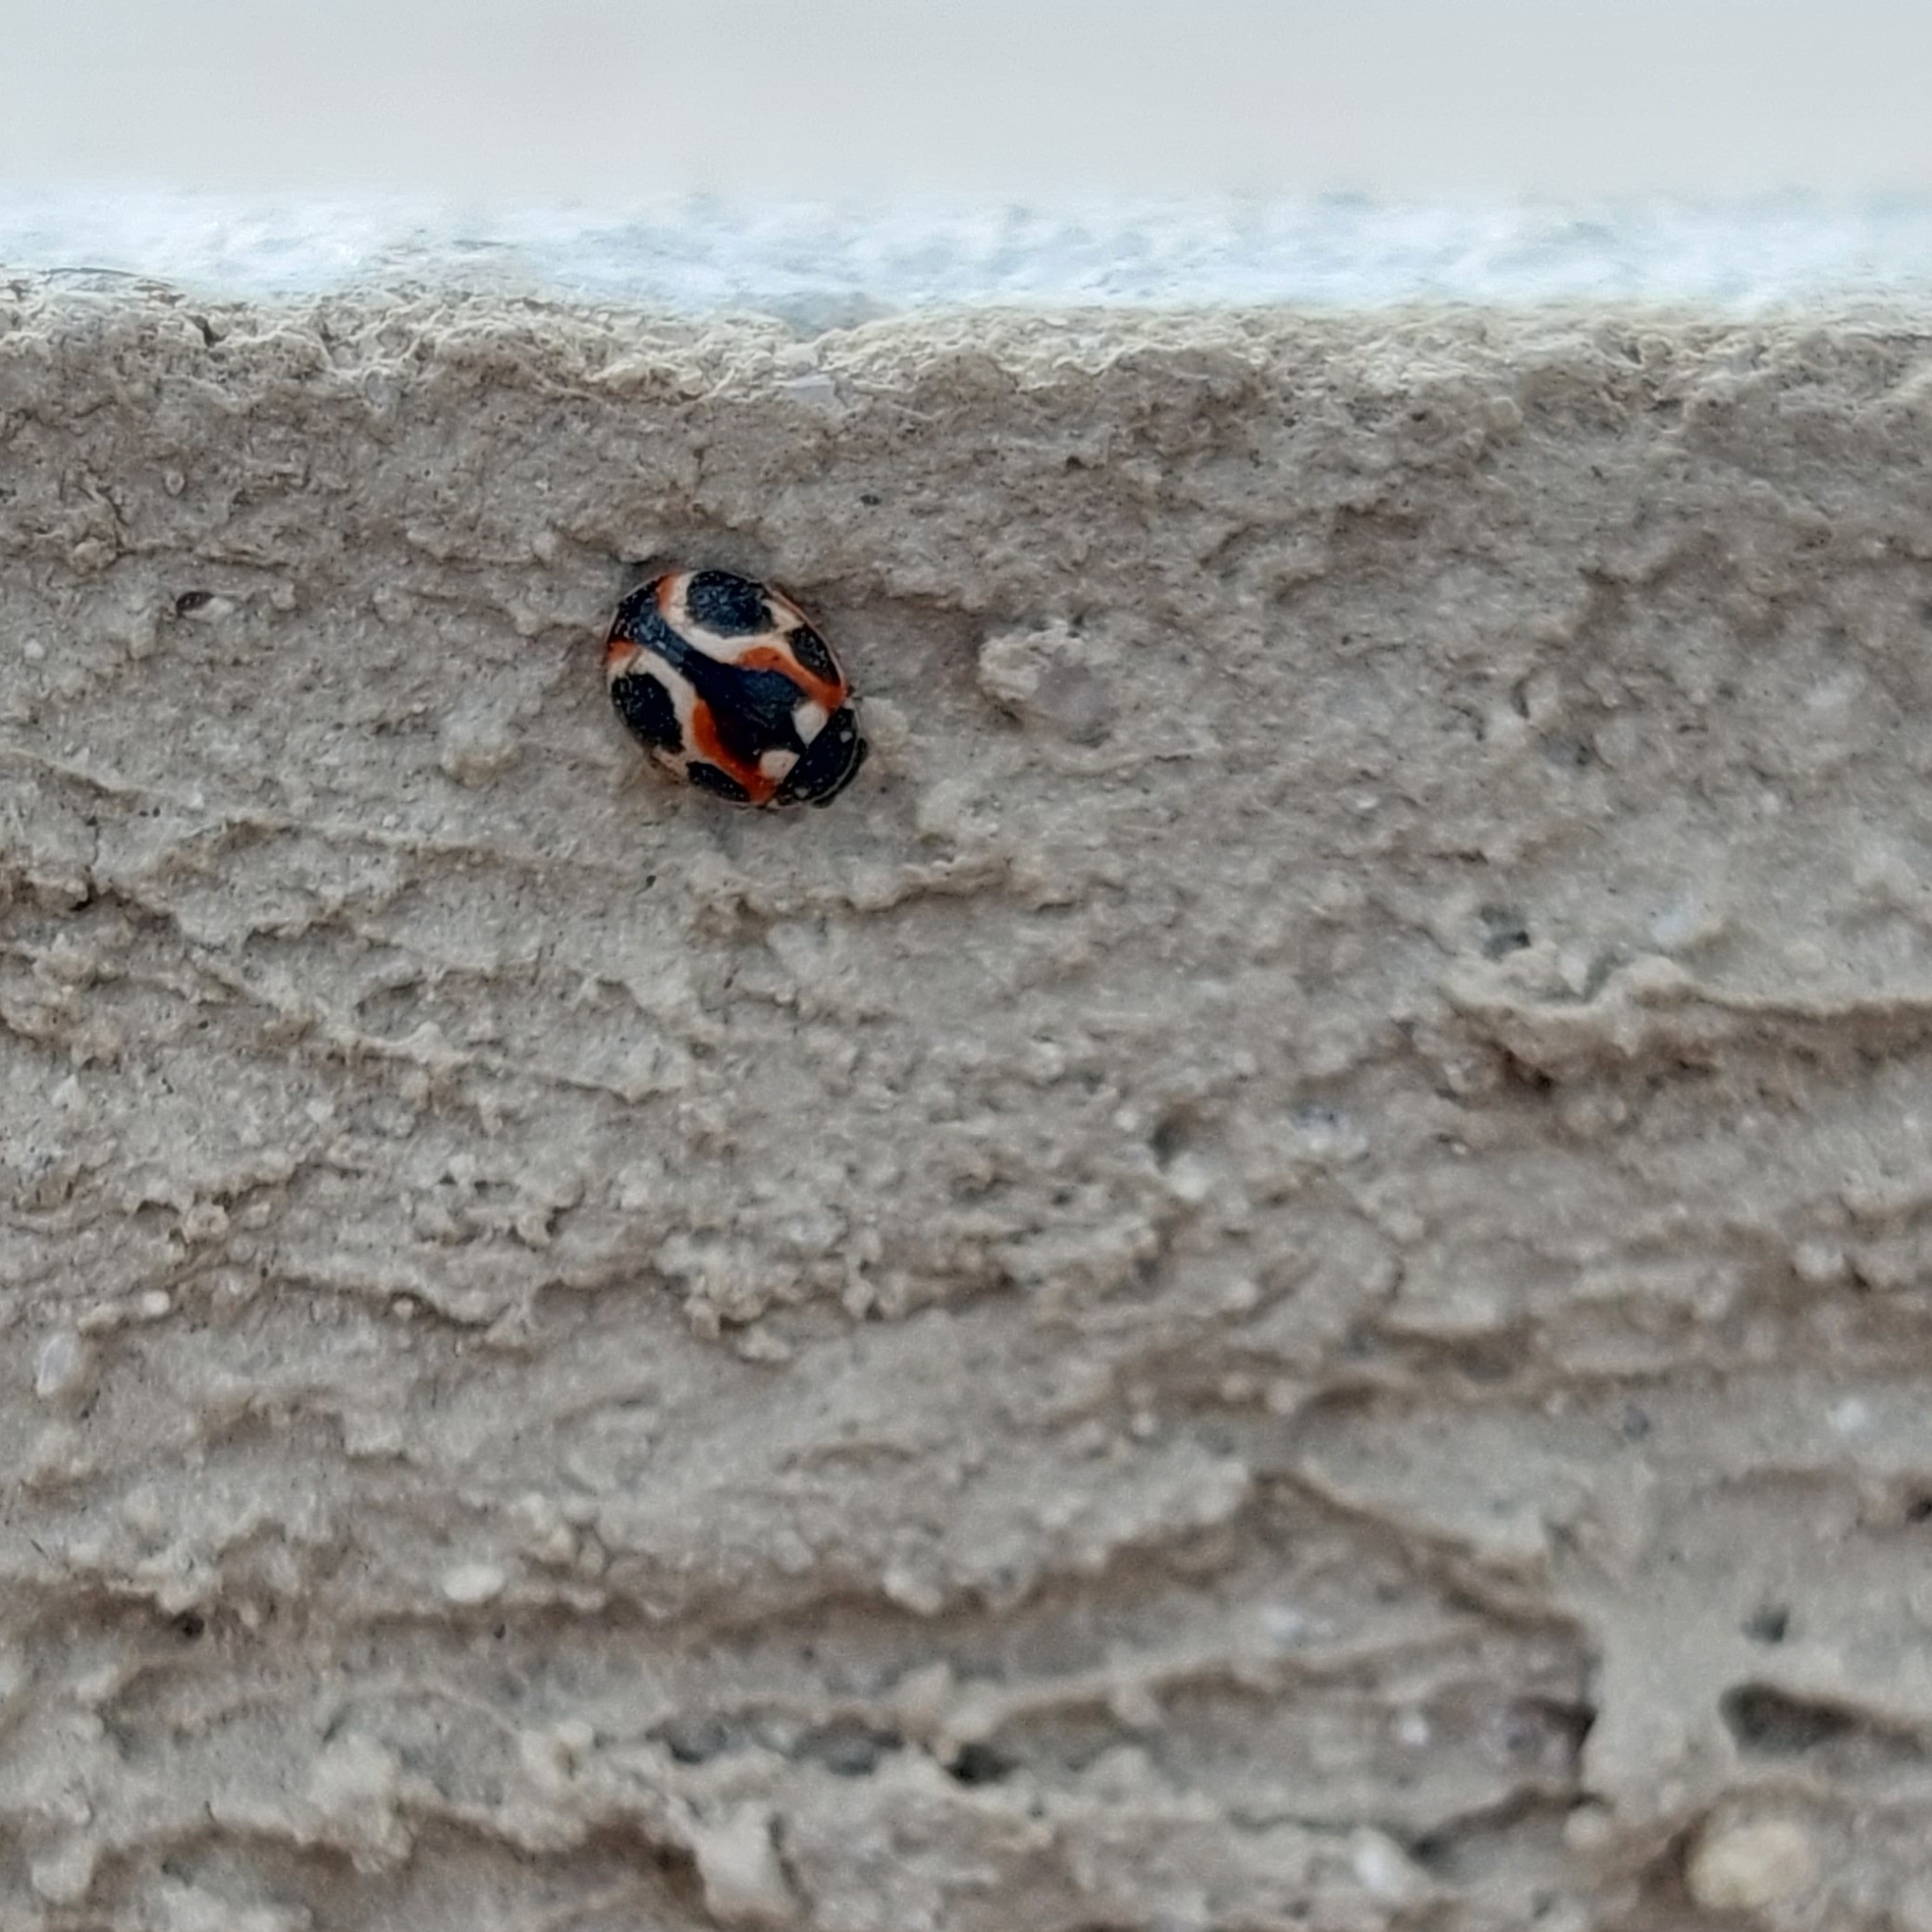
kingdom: Animalia
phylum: Arthropoda
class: Insecta
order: Coleoptera
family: Coccinellidae
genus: Cycloneda
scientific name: Cycloneda ancoralis
